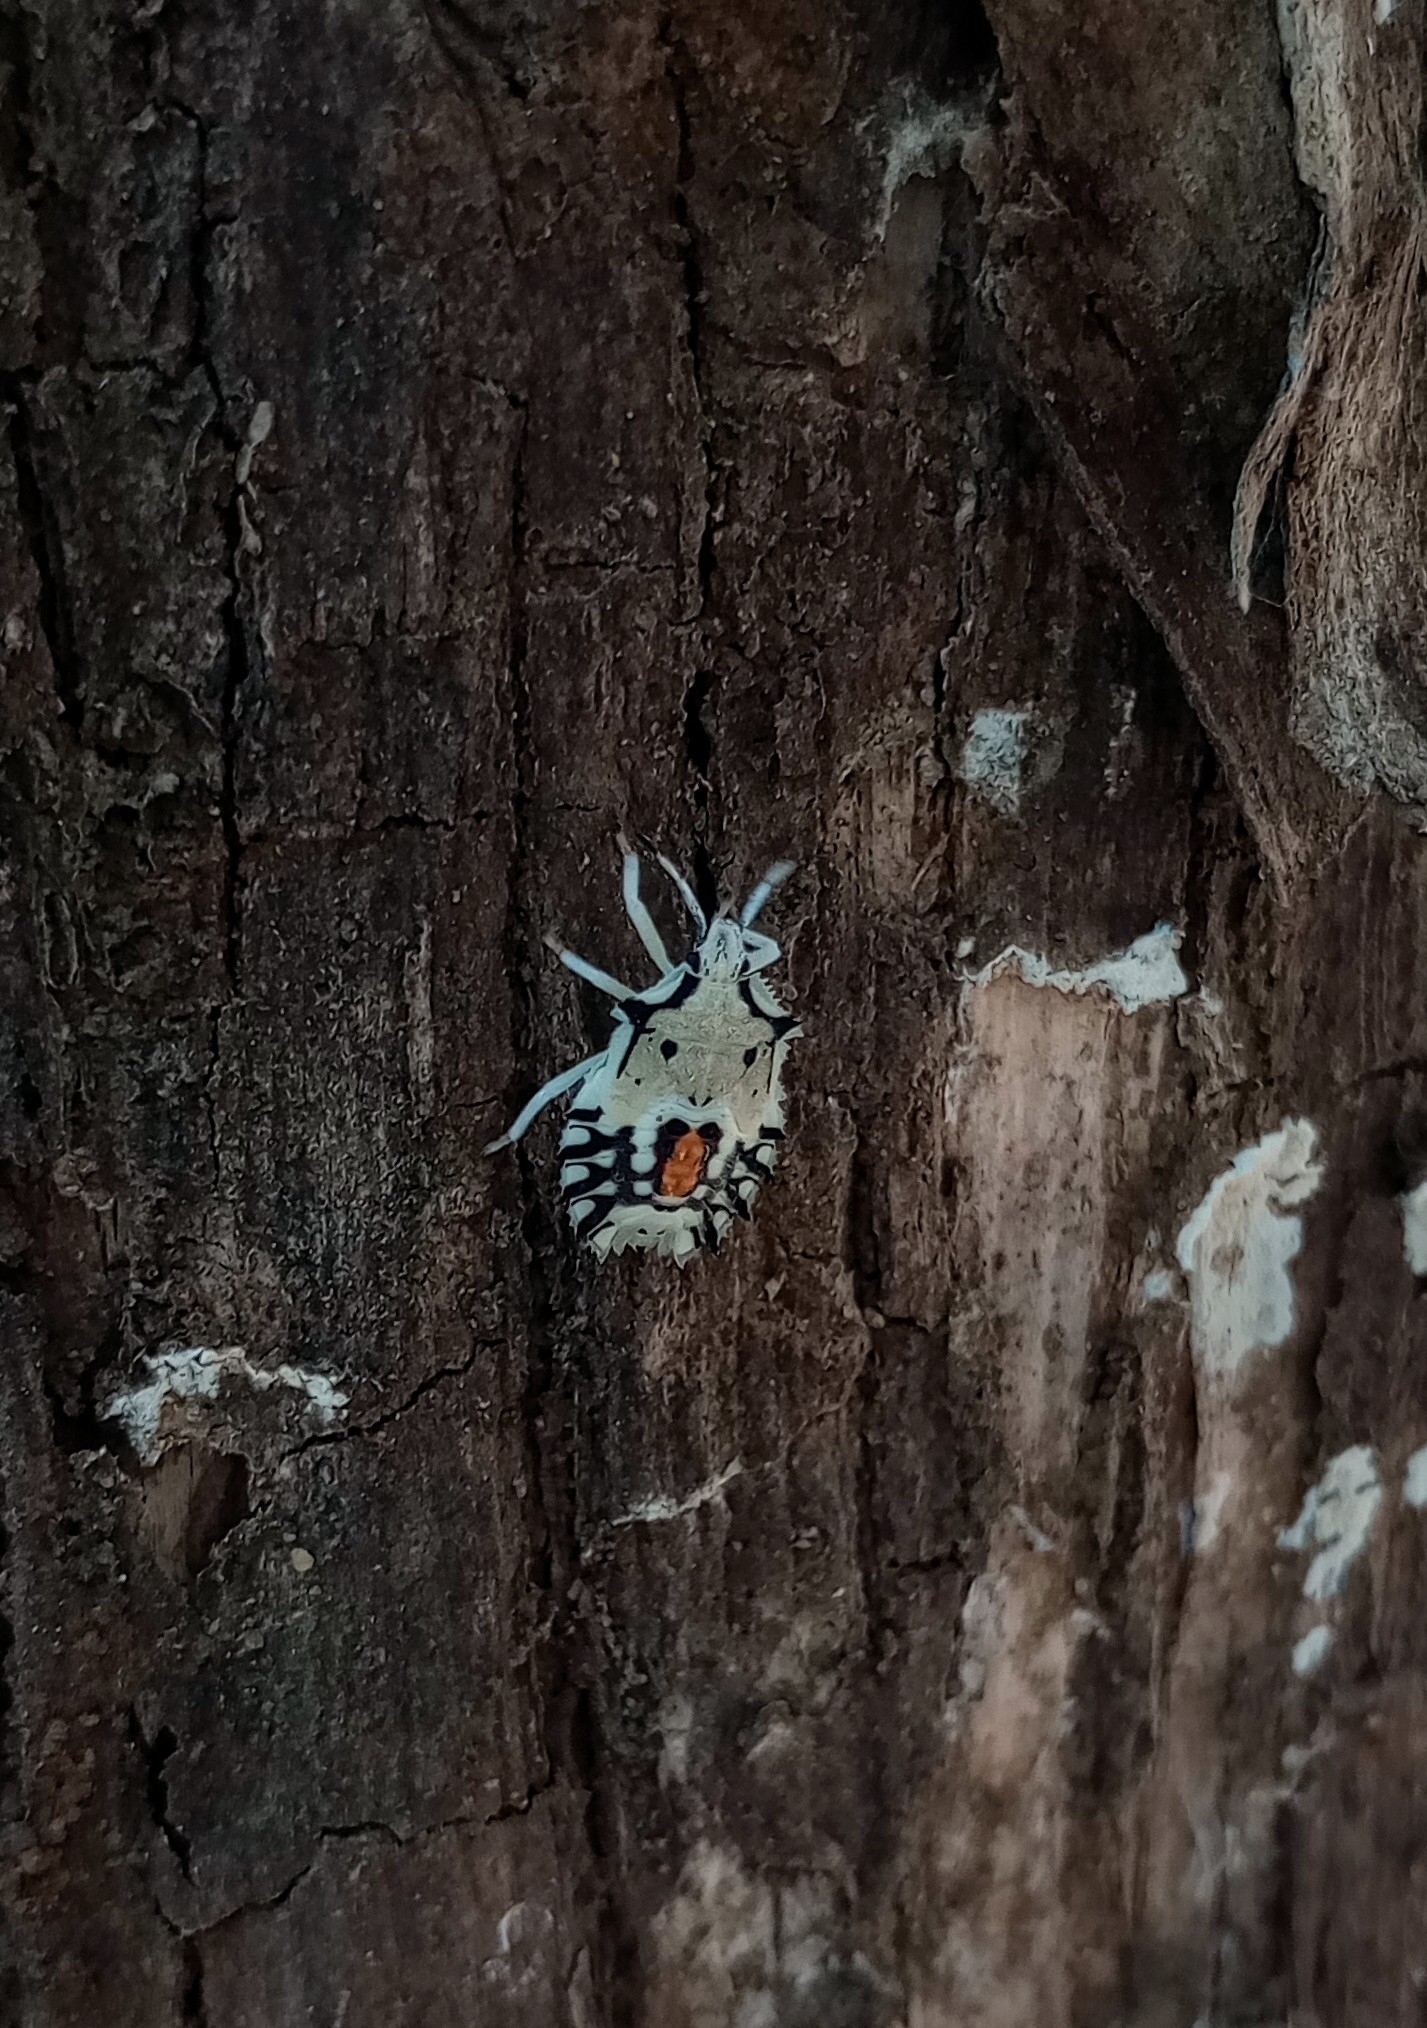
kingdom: Animalia
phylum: Arthropoda
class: Insecta
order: Hemiptera
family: Pentatomidae
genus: Degonetus
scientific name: Degonetus serratus
